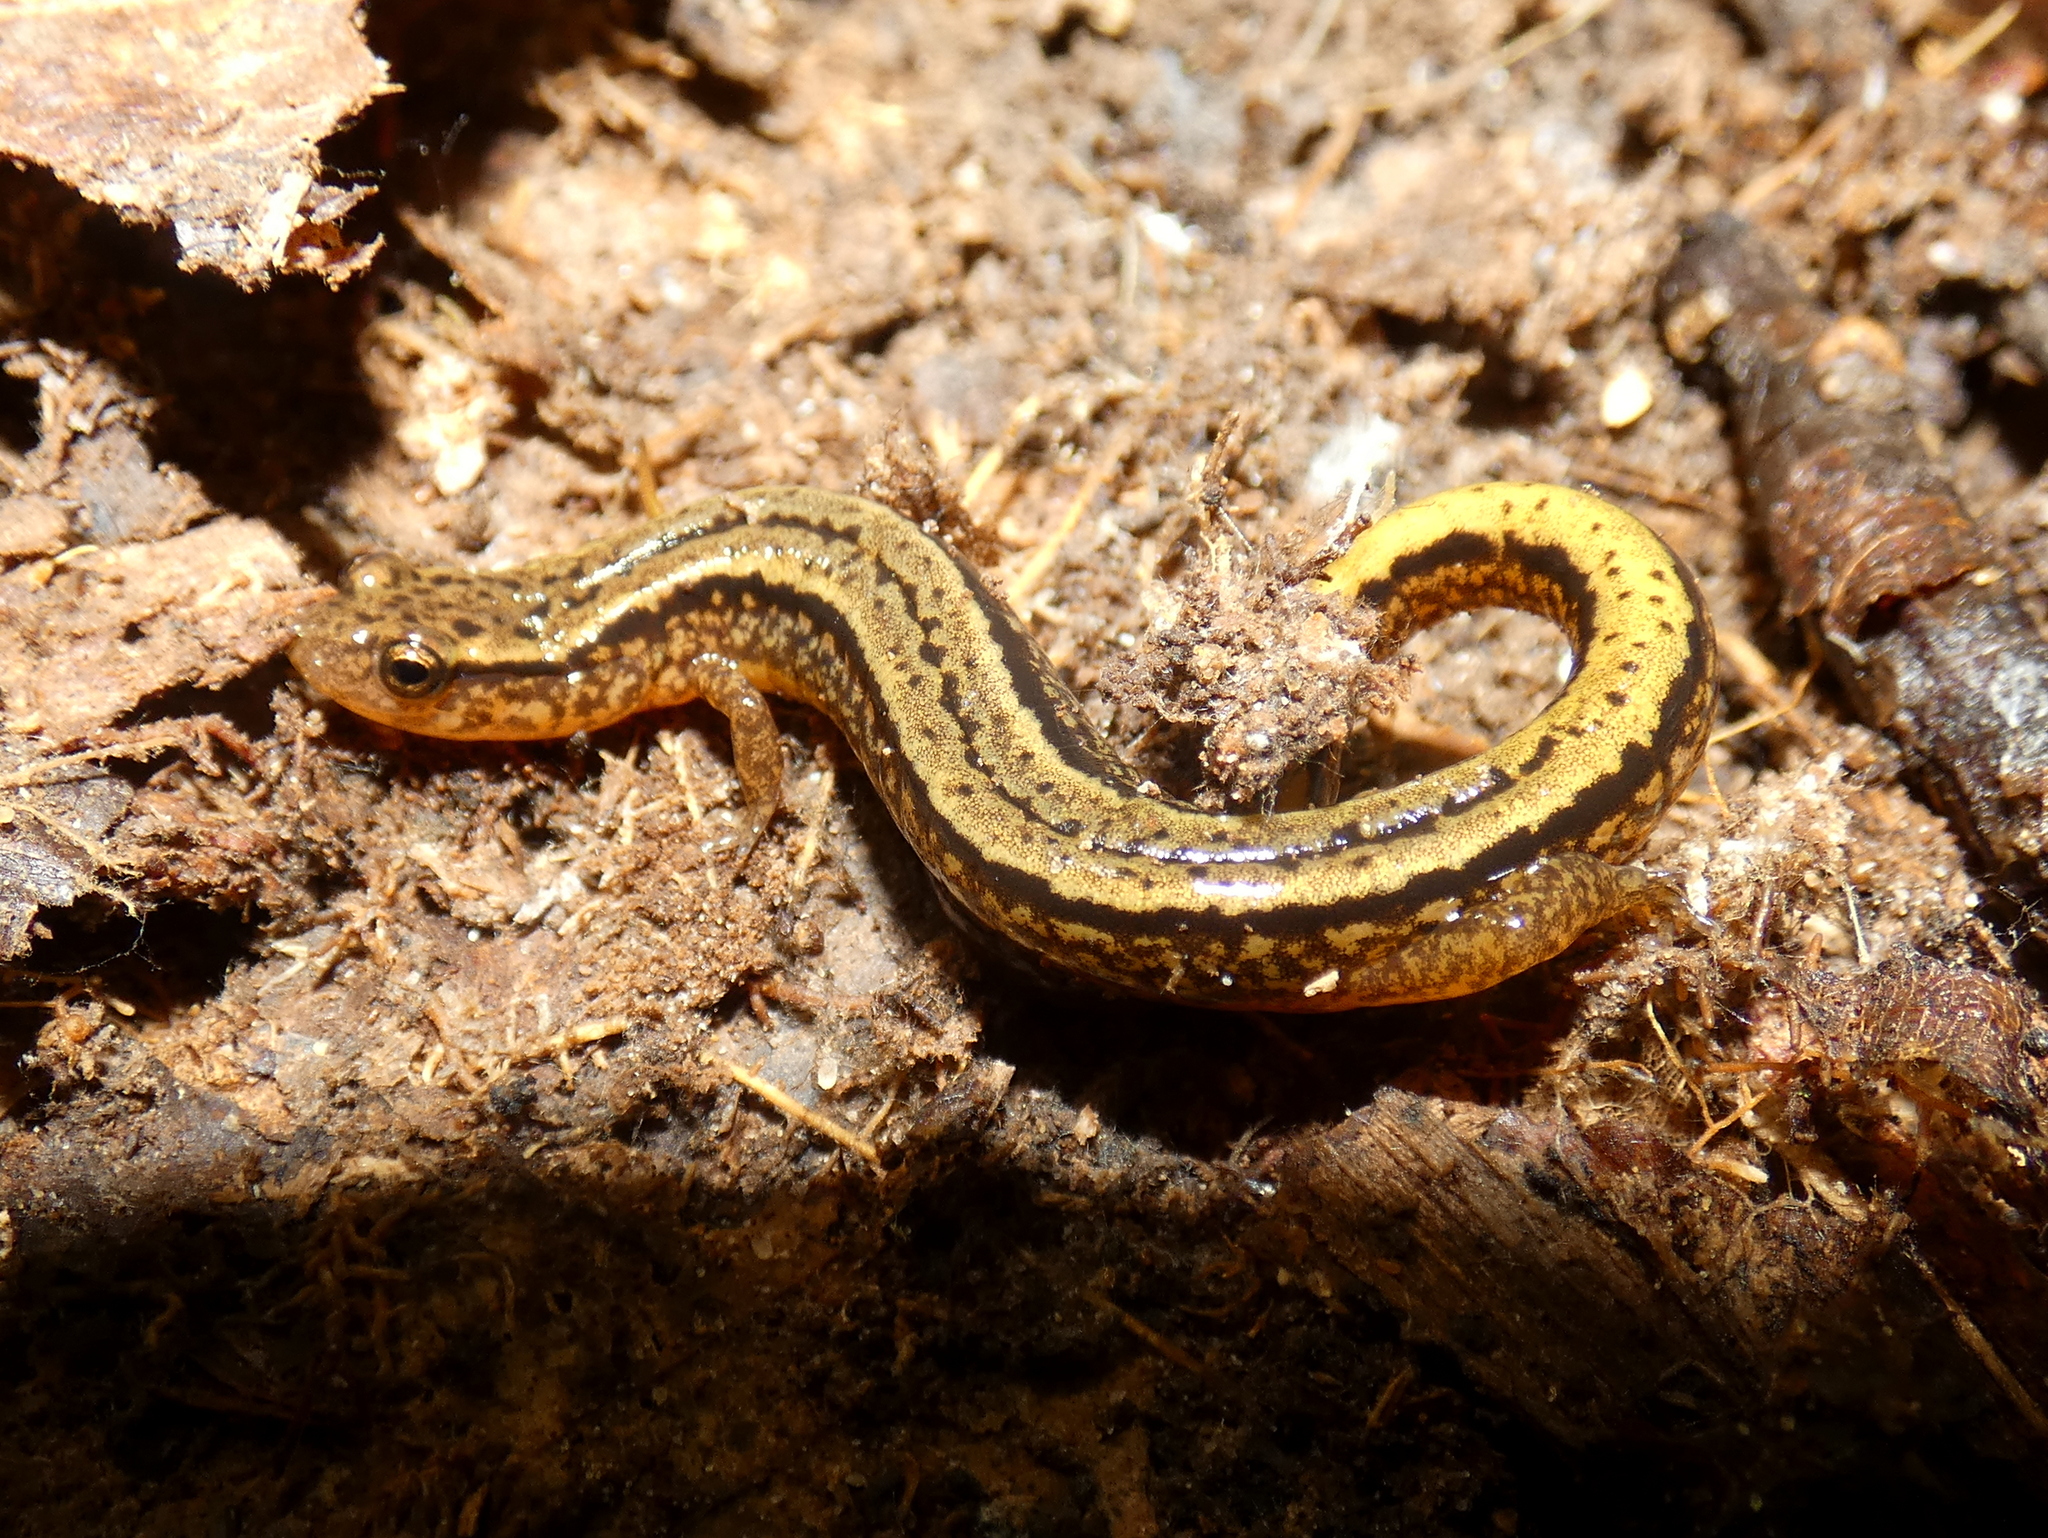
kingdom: Animalia
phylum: Chordata
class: Amphibia
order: Caudata
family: Plethodontidae
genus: Eurycea
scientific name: Eurycea bislineata
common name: Northern two-lined salamander
